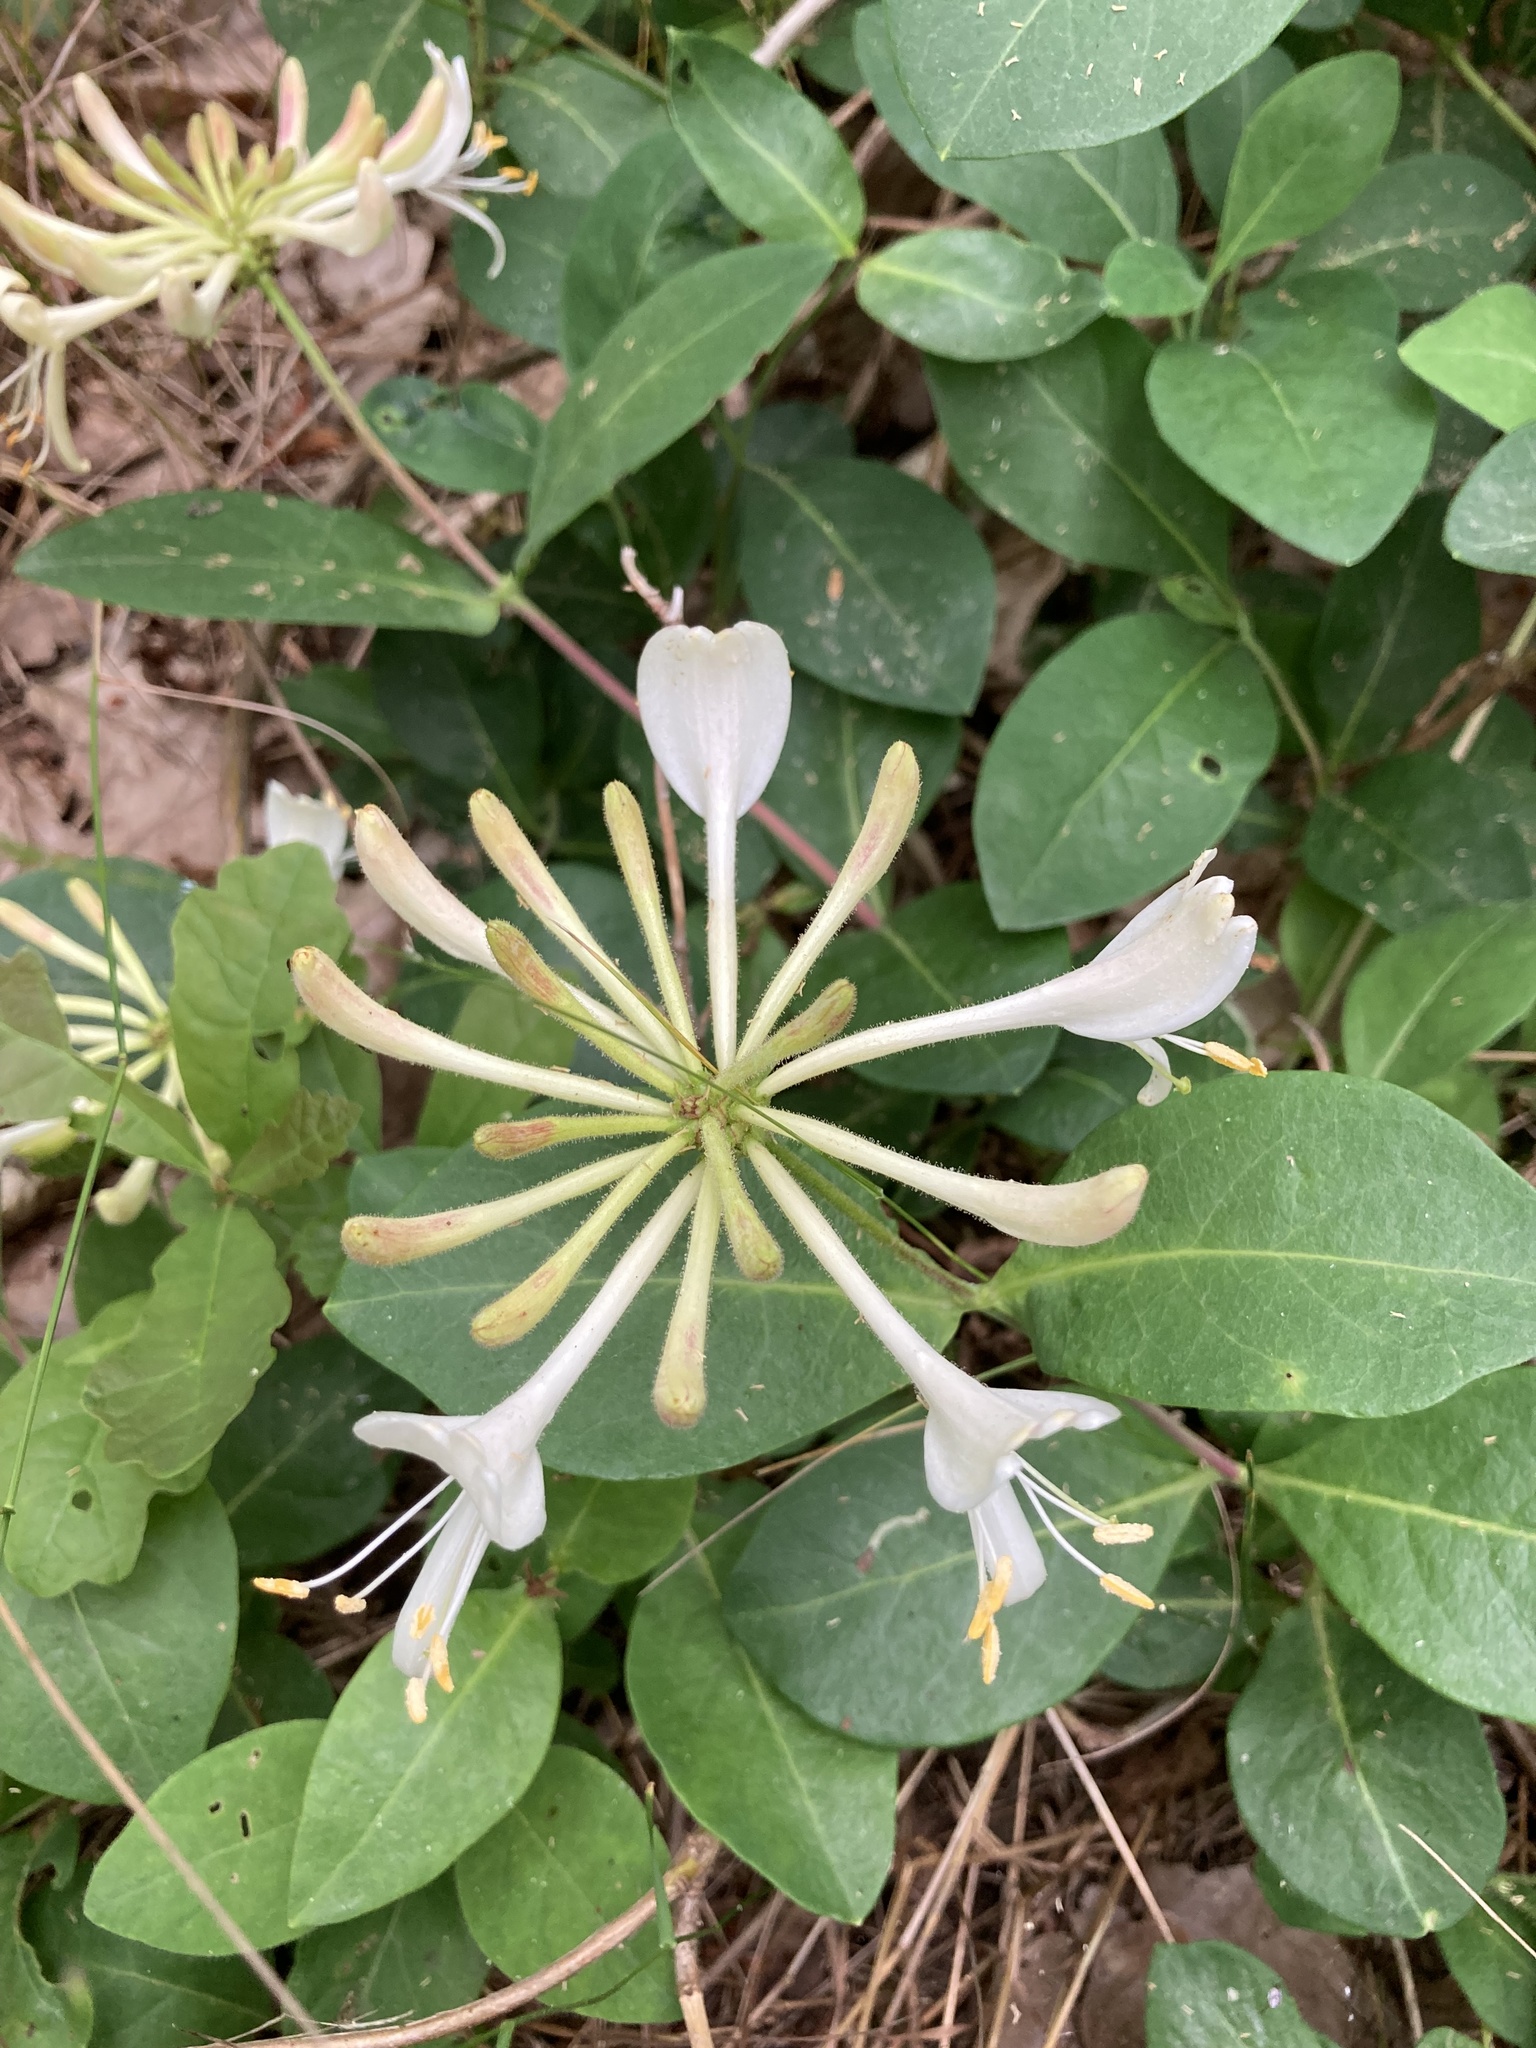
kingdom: Plantae
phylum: Tracheophyta
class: Magnoliopsida
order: Dipsacales
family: Caprifoliaceae
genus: Lonicera
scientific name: Lonicera periclymenum
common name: European honeysuckle
